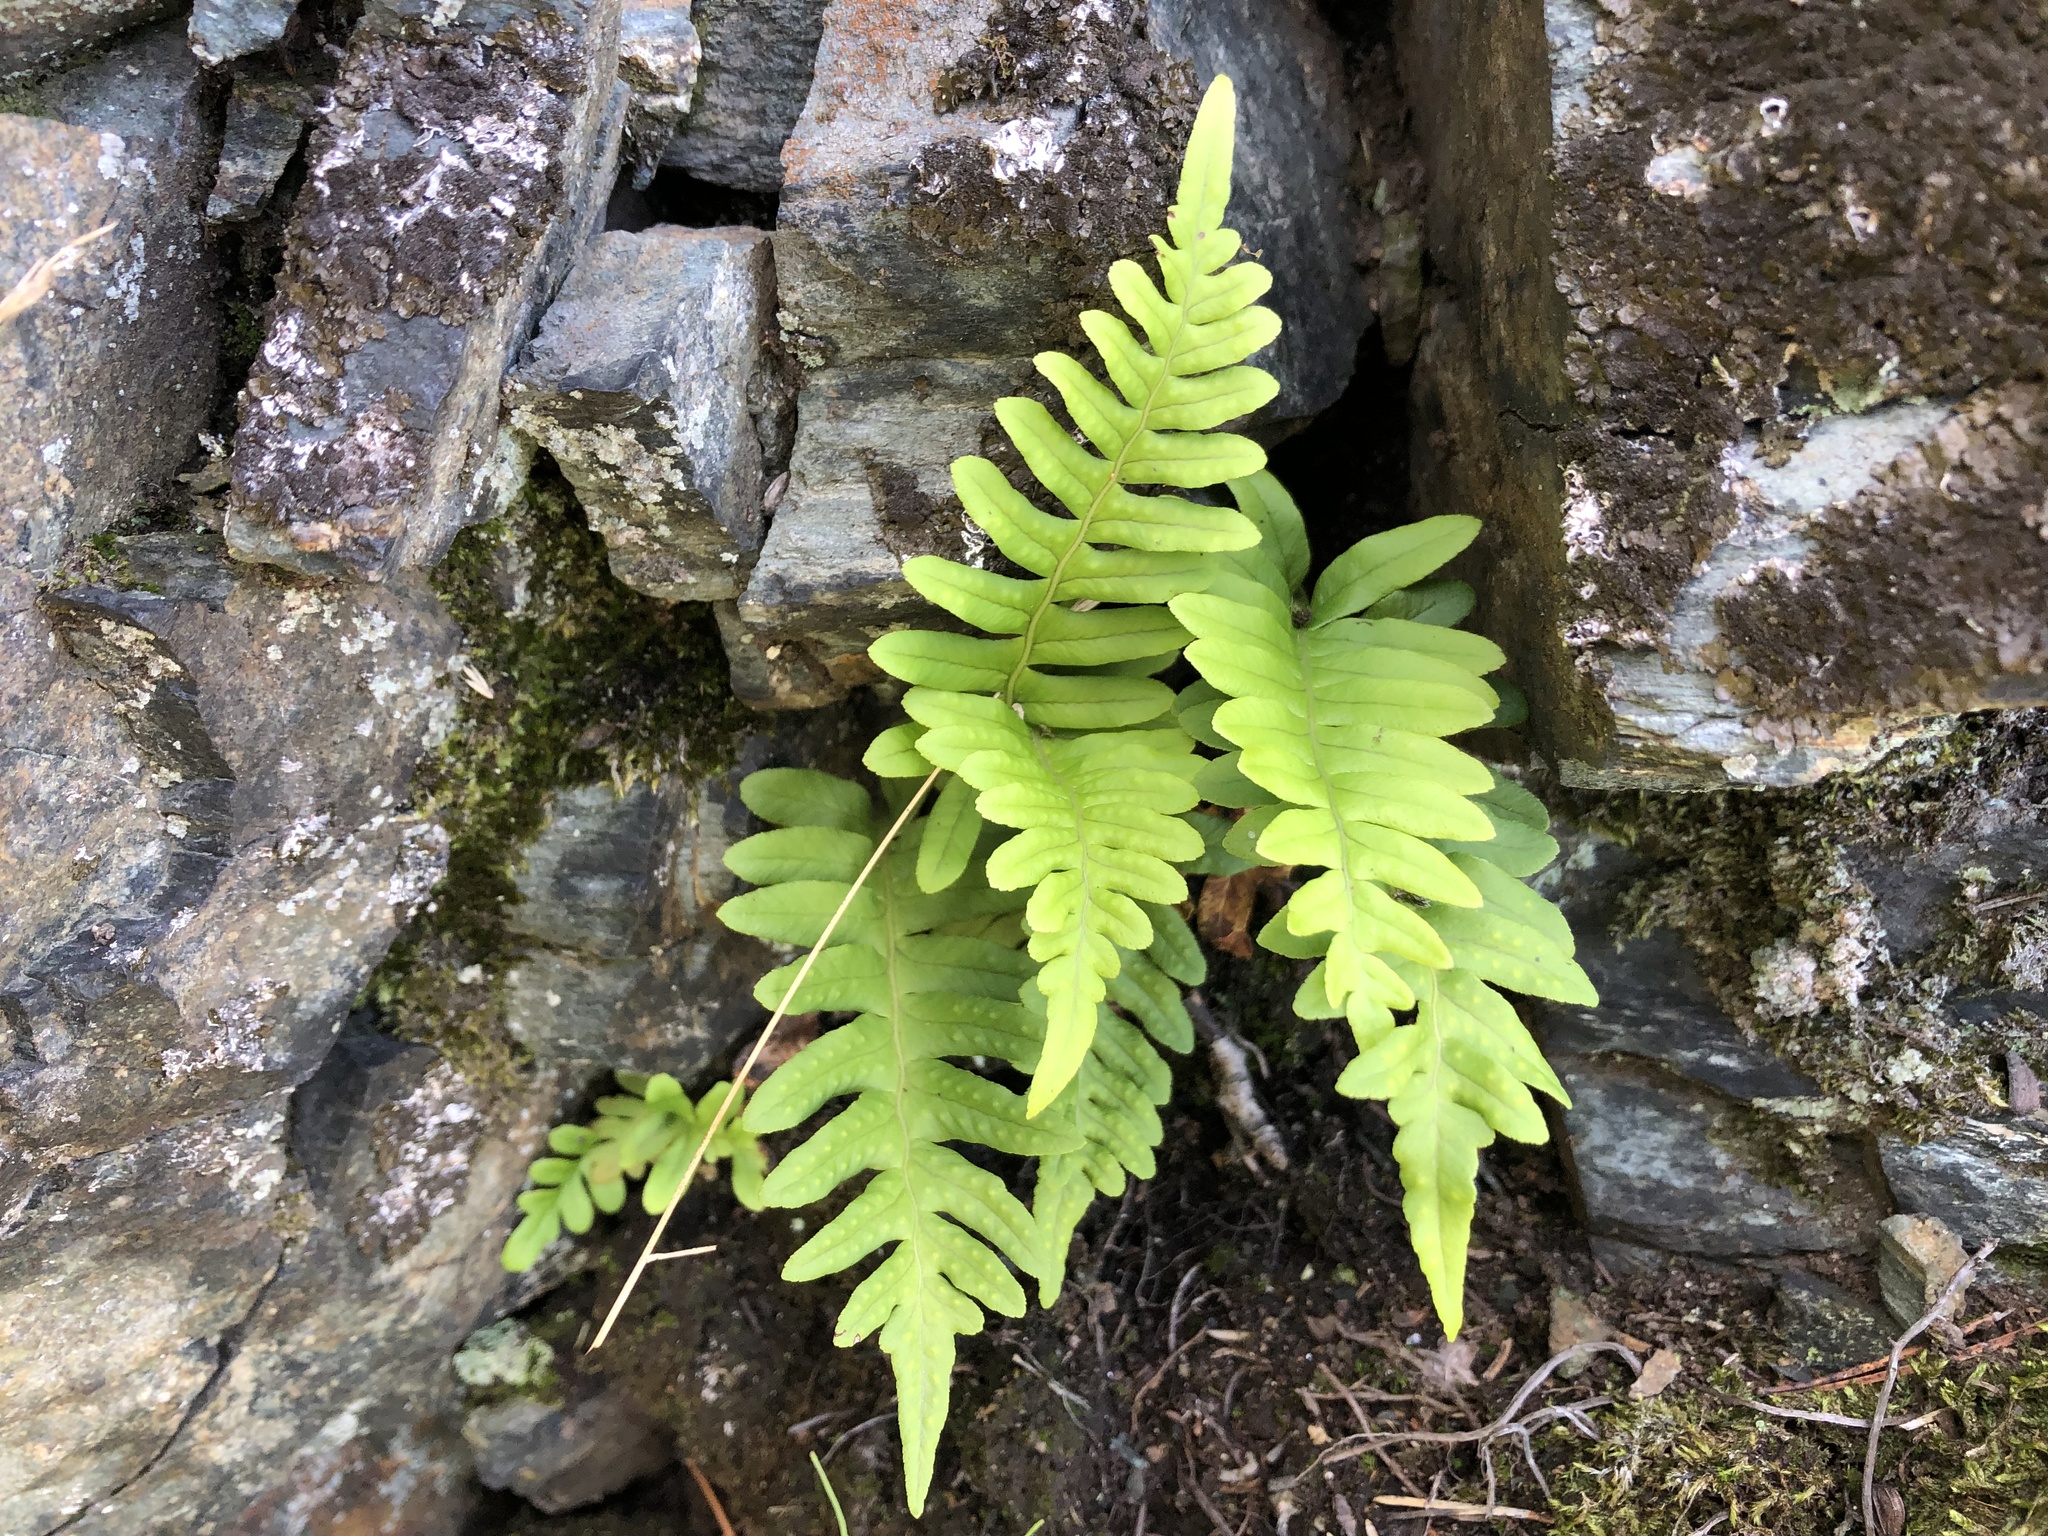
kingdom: Plantae
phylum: Tracheophyta
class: Polypodiopsida
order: Polypodiales
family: Polypodiaceae
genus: Polypodium
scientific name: Polypodium vulgare
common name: Common polypody
